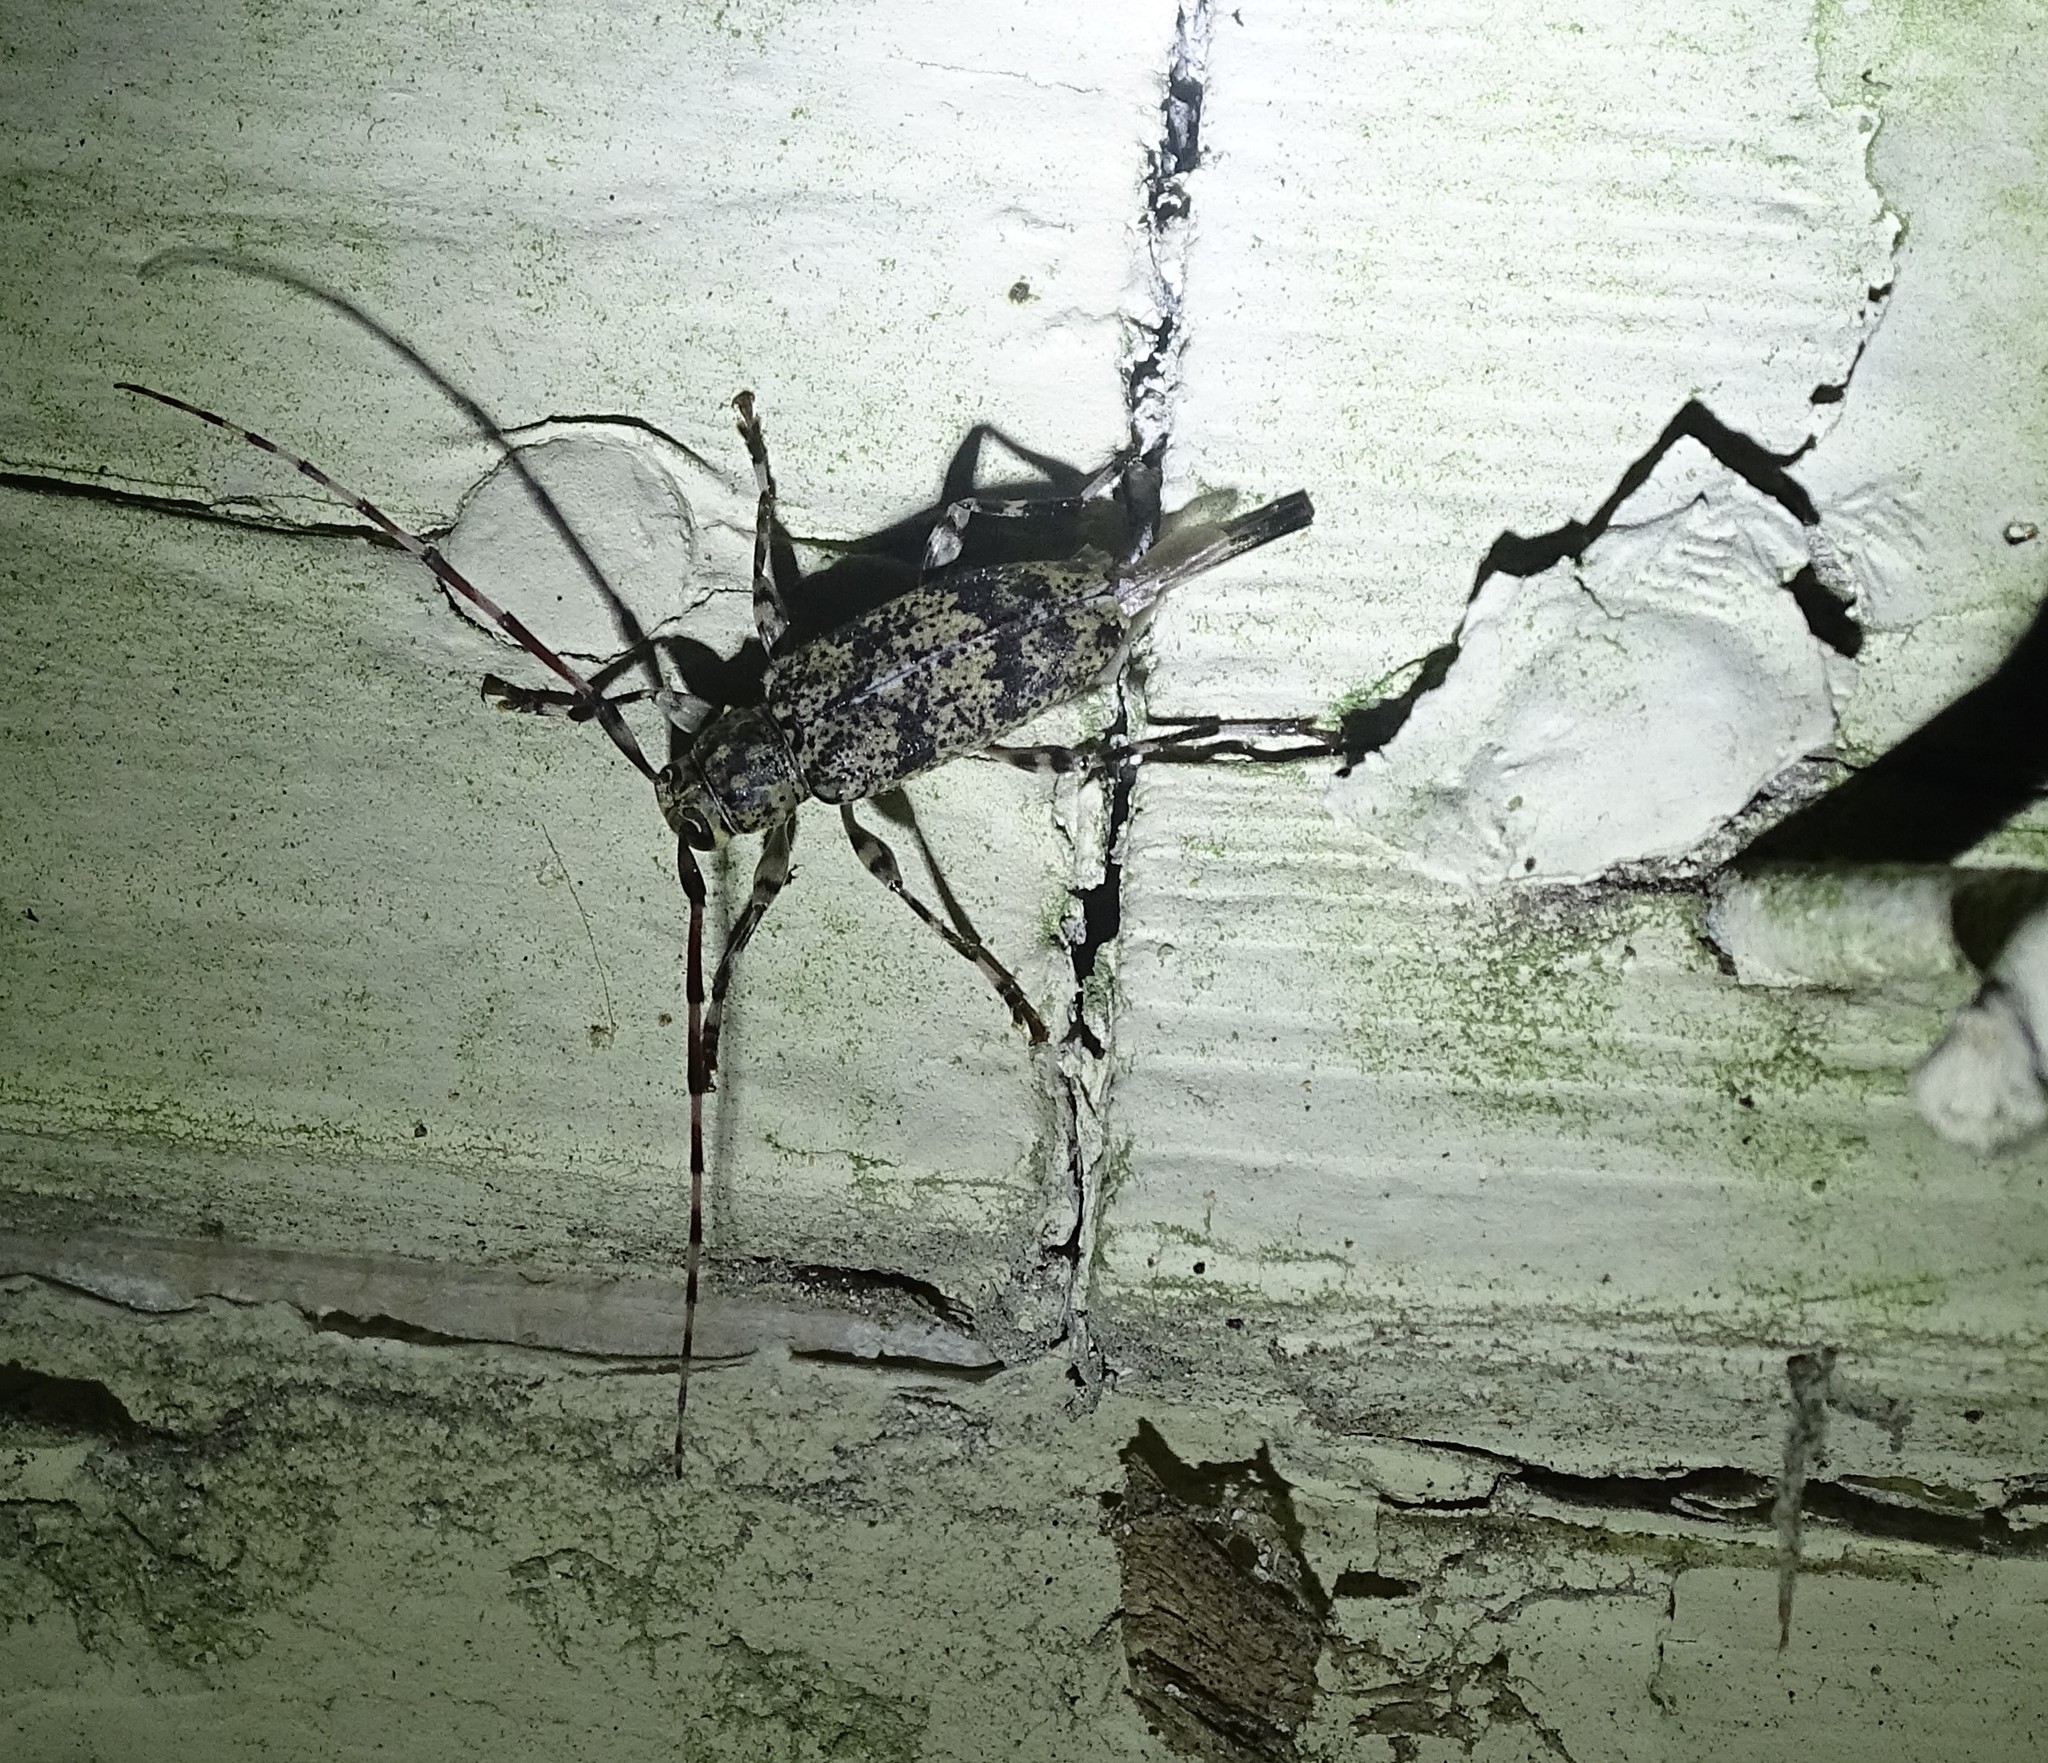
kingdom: Animalia
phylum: Arthropoda
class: Insecta
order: Coleoptera
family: Cerambycidae
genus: Graphisurus
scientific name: Graphisurus fasciatus
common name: Banded graphisurus
